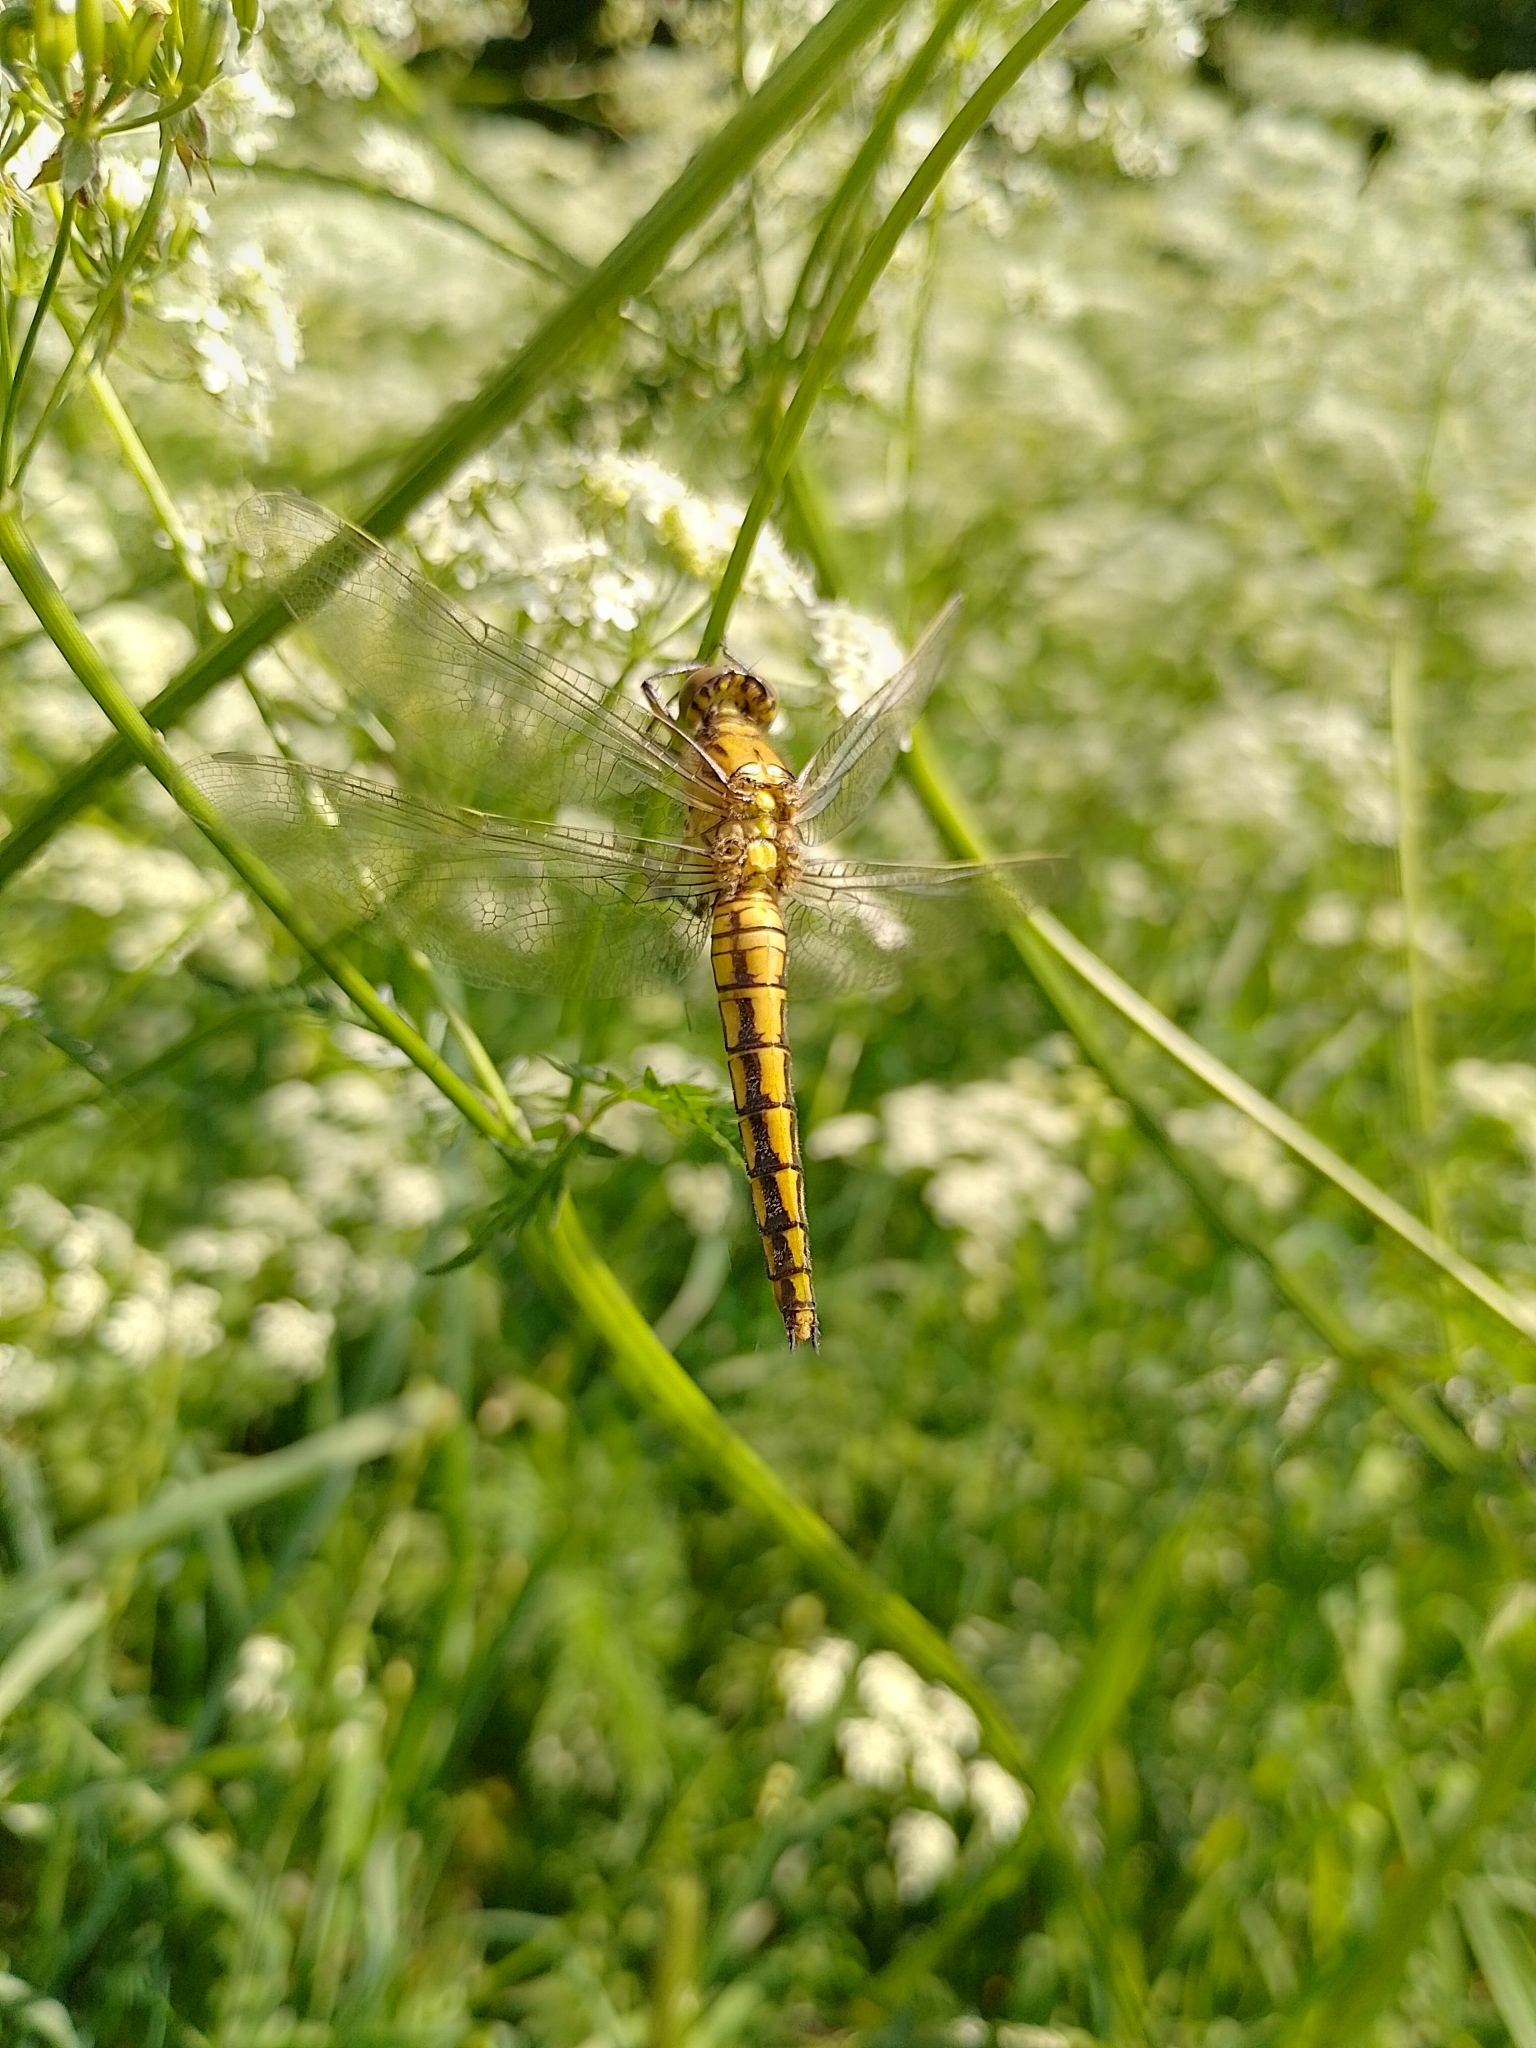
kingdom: Animalia
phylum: Arthropoda
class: Insecta
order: Odonata
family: Libellulidae
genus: Orthetrum
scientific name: Orthetrum cancellatum
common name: Black-tailed skimmer
